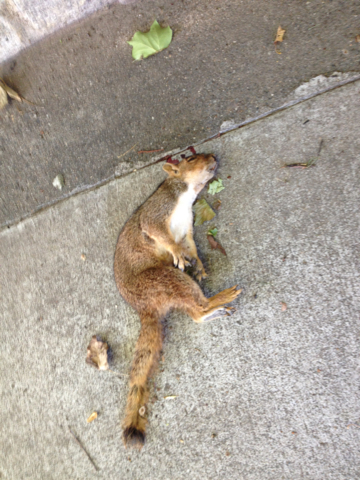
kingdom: Animalia
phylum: Chordata
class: Mammalia
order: Rodentia
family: Sciuridae
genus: Sciurus
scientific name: Sciurus carolinensis
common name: Eastern gray squirrel
